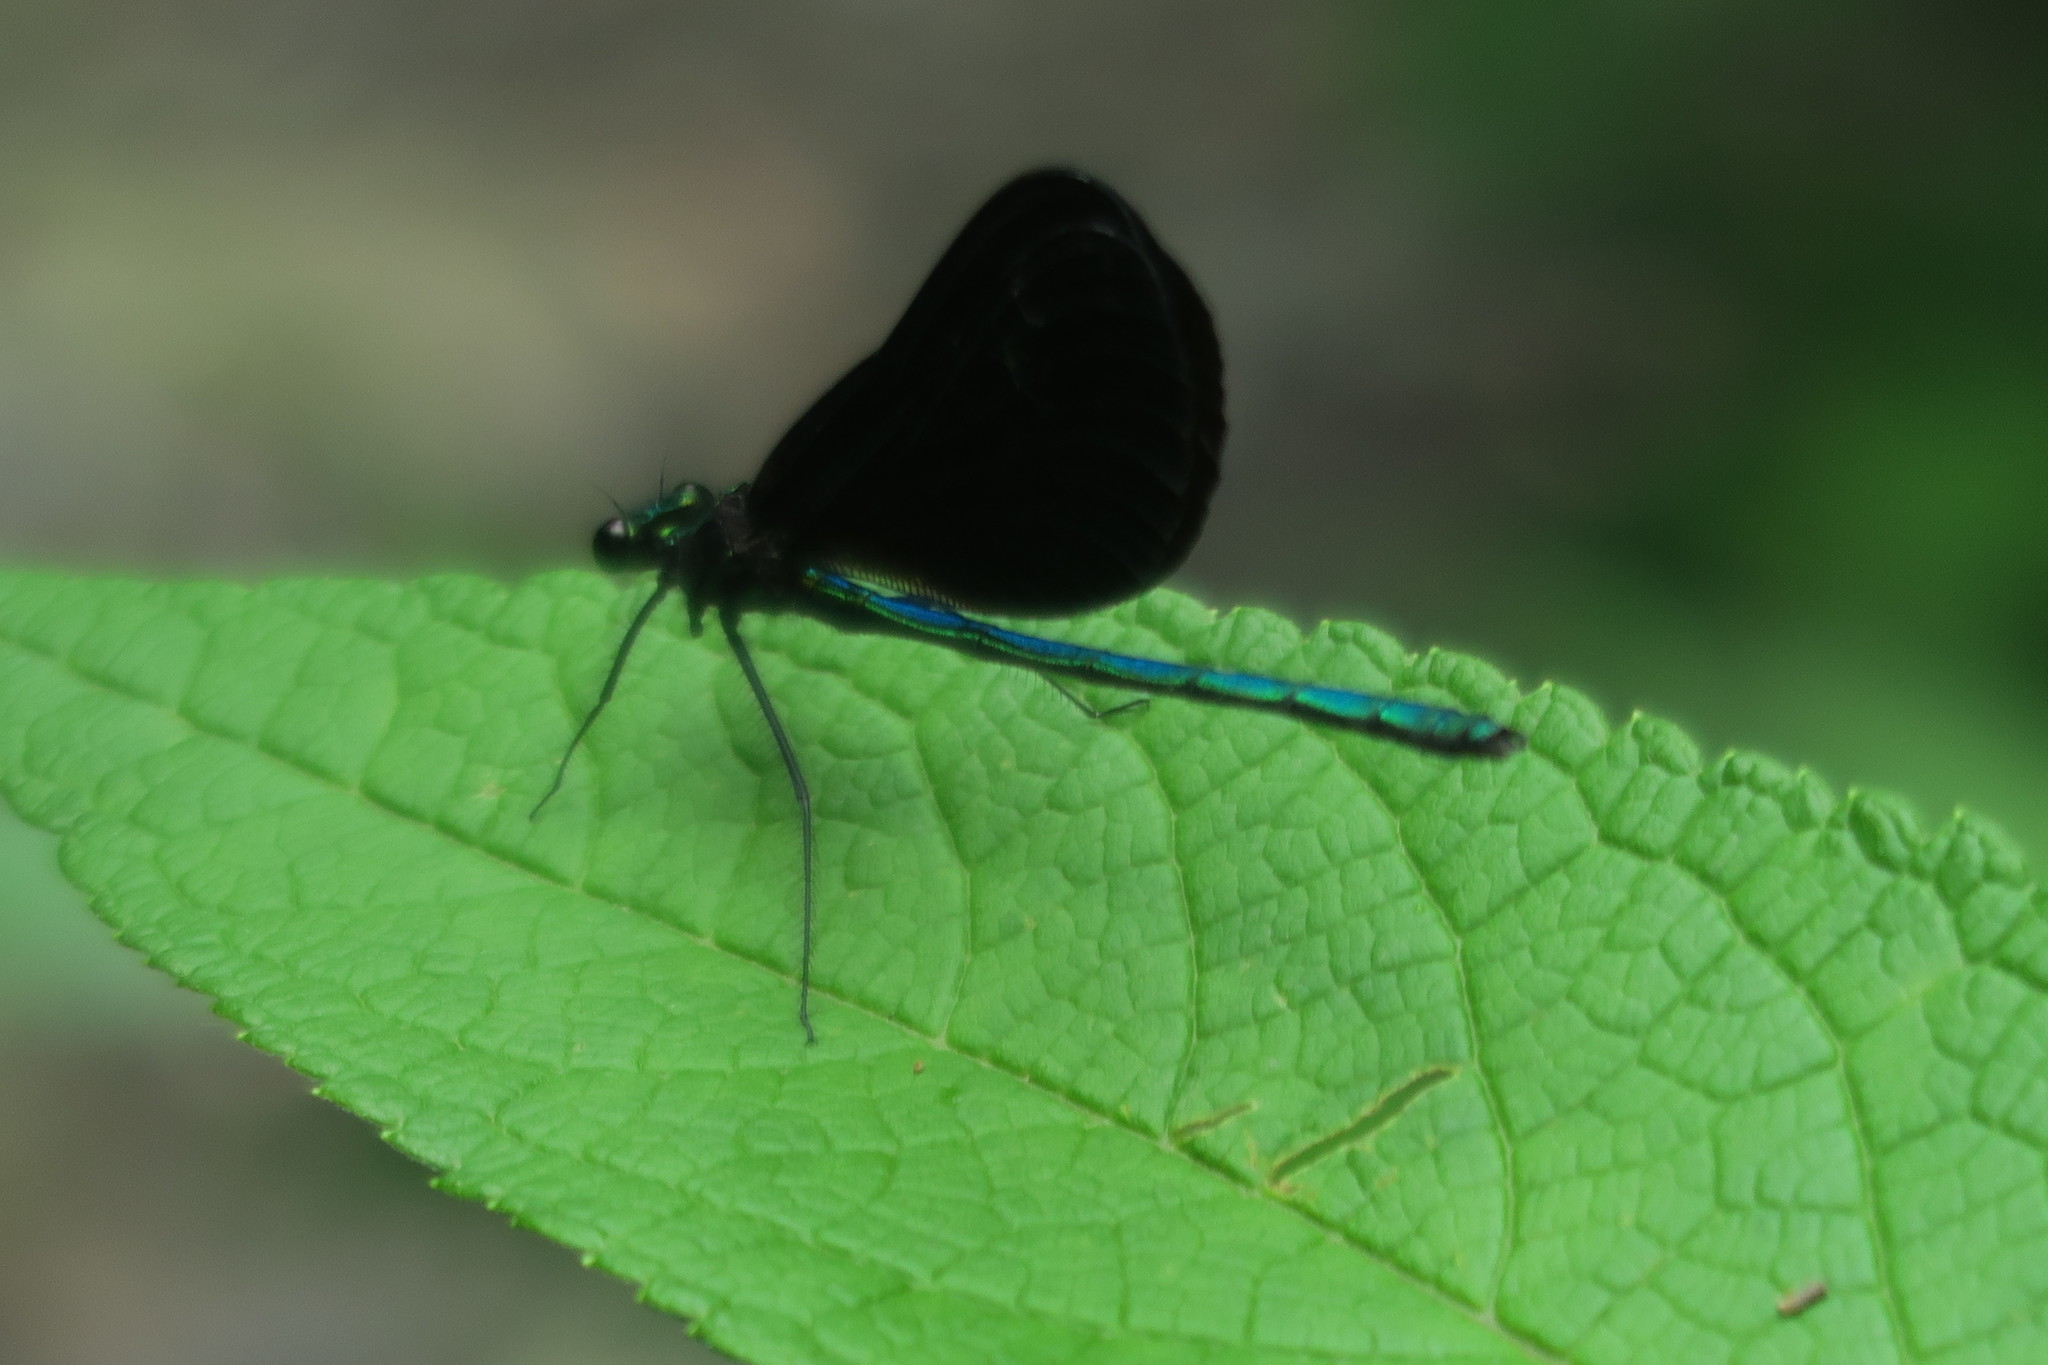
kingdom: Animalia
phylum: Arthropoda
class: Insecta
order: Odonata
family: Calopterygidae
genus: Calopteryx
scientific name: Calopteryx maculata
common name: Ebony jewelwing
